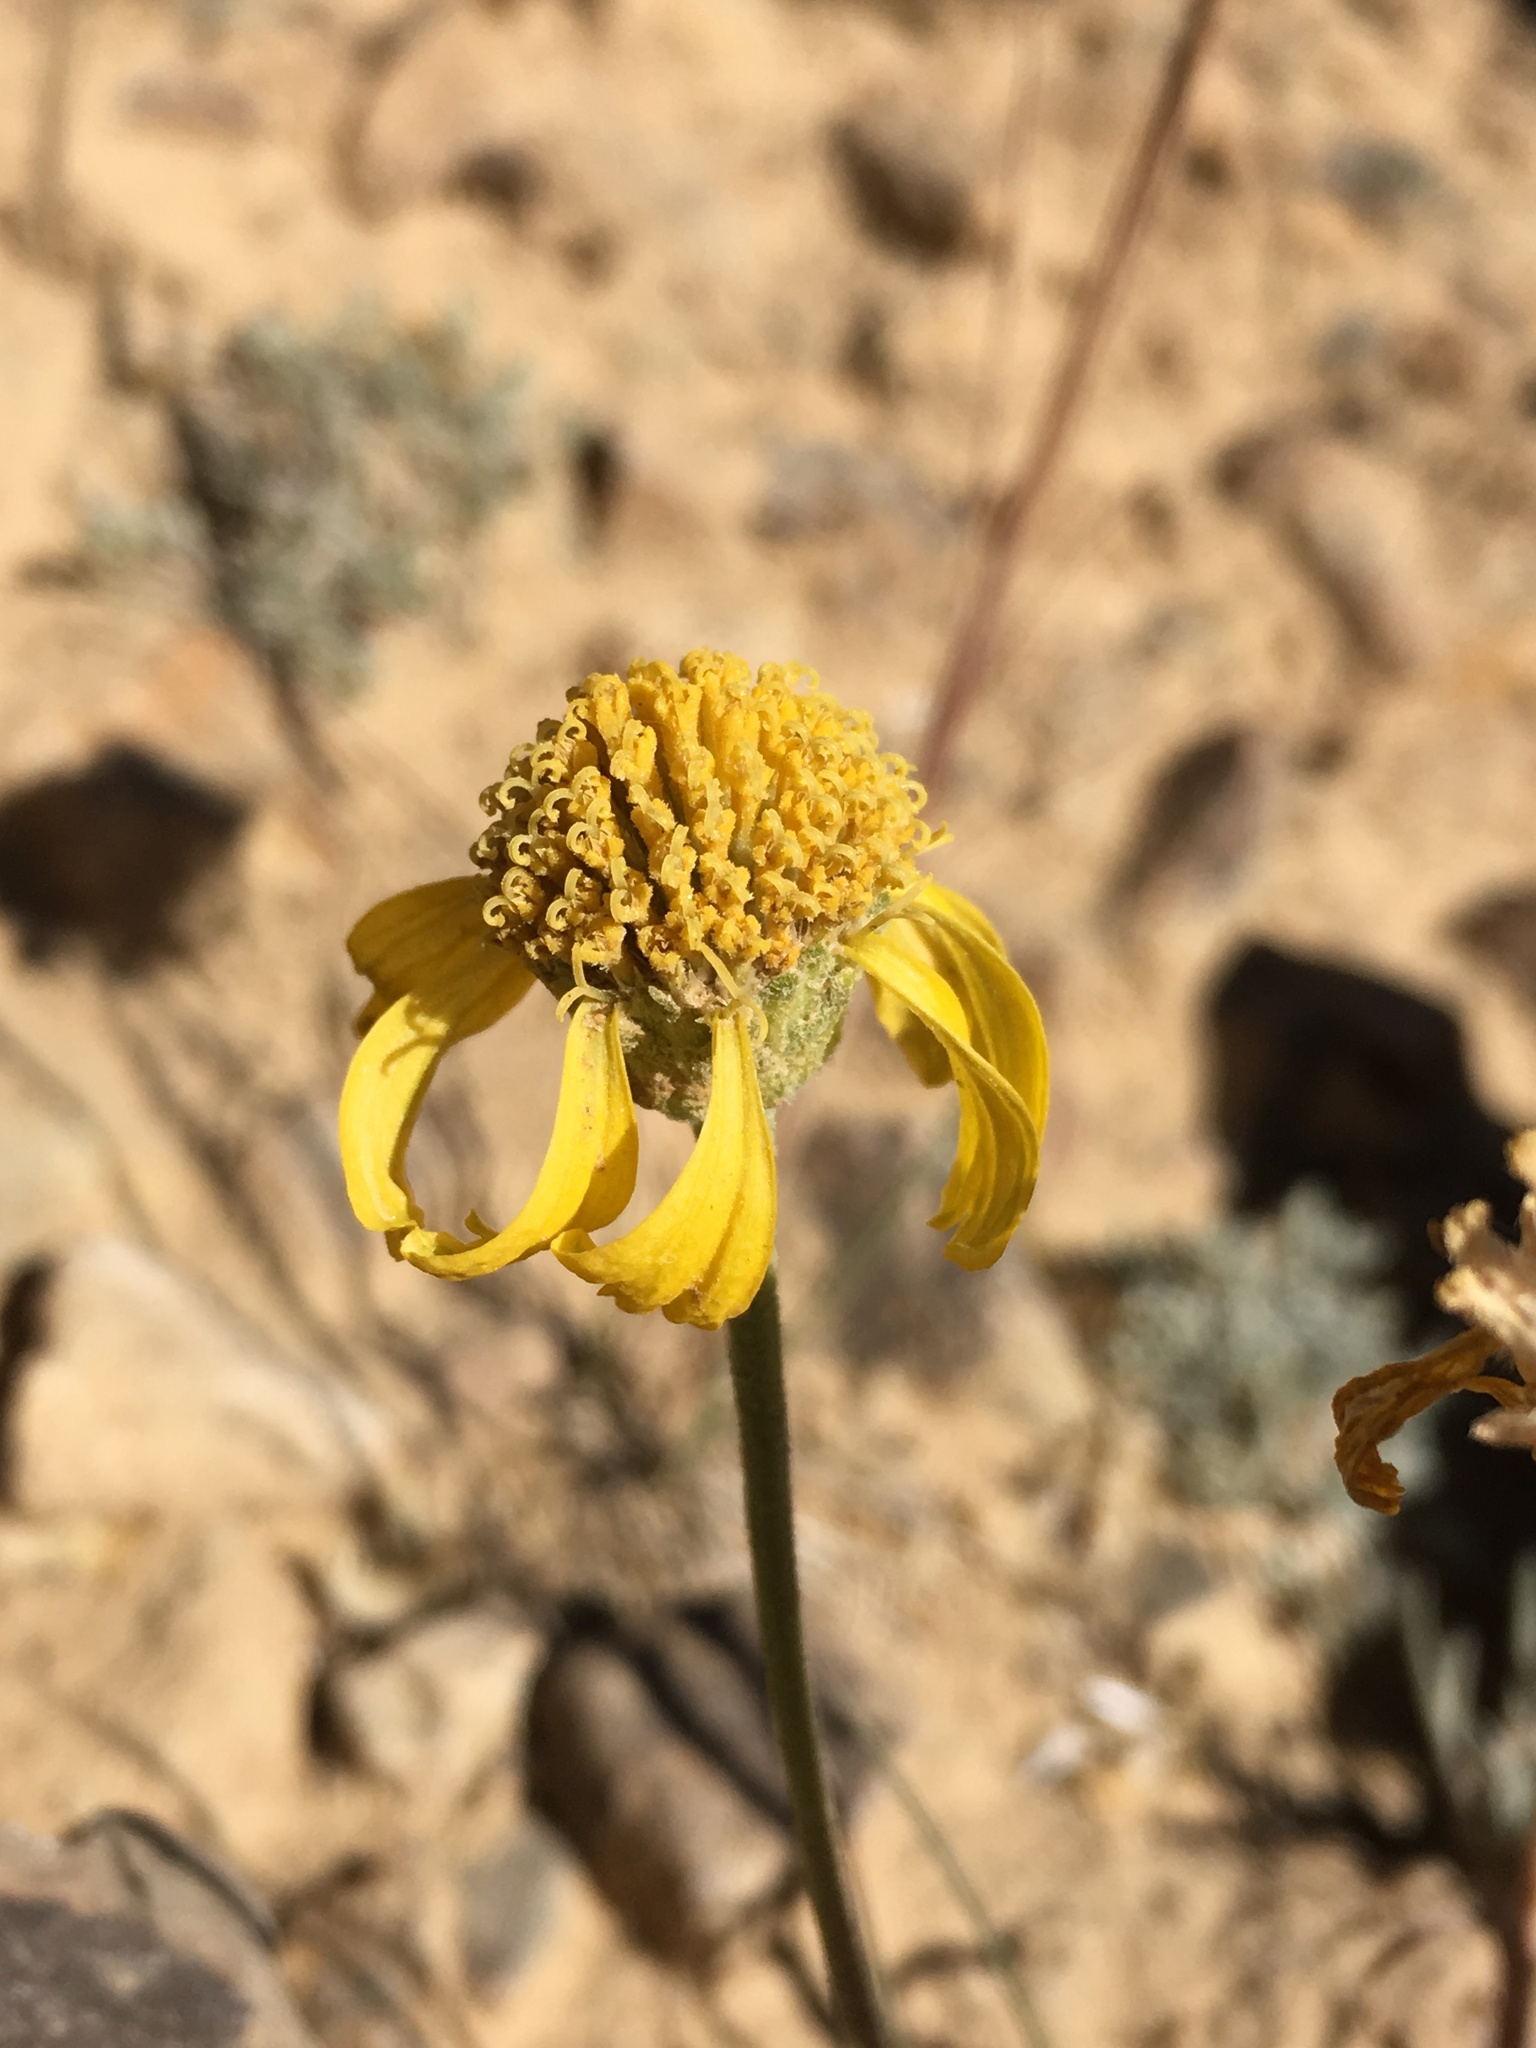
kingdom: Plantae
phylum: Tracheophyta
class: Magnoliopsida
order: Asterales
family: Asteraceae
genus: Hymenoxys
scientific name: Hymenoxys cooperi
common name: Cooper's bitterweed
